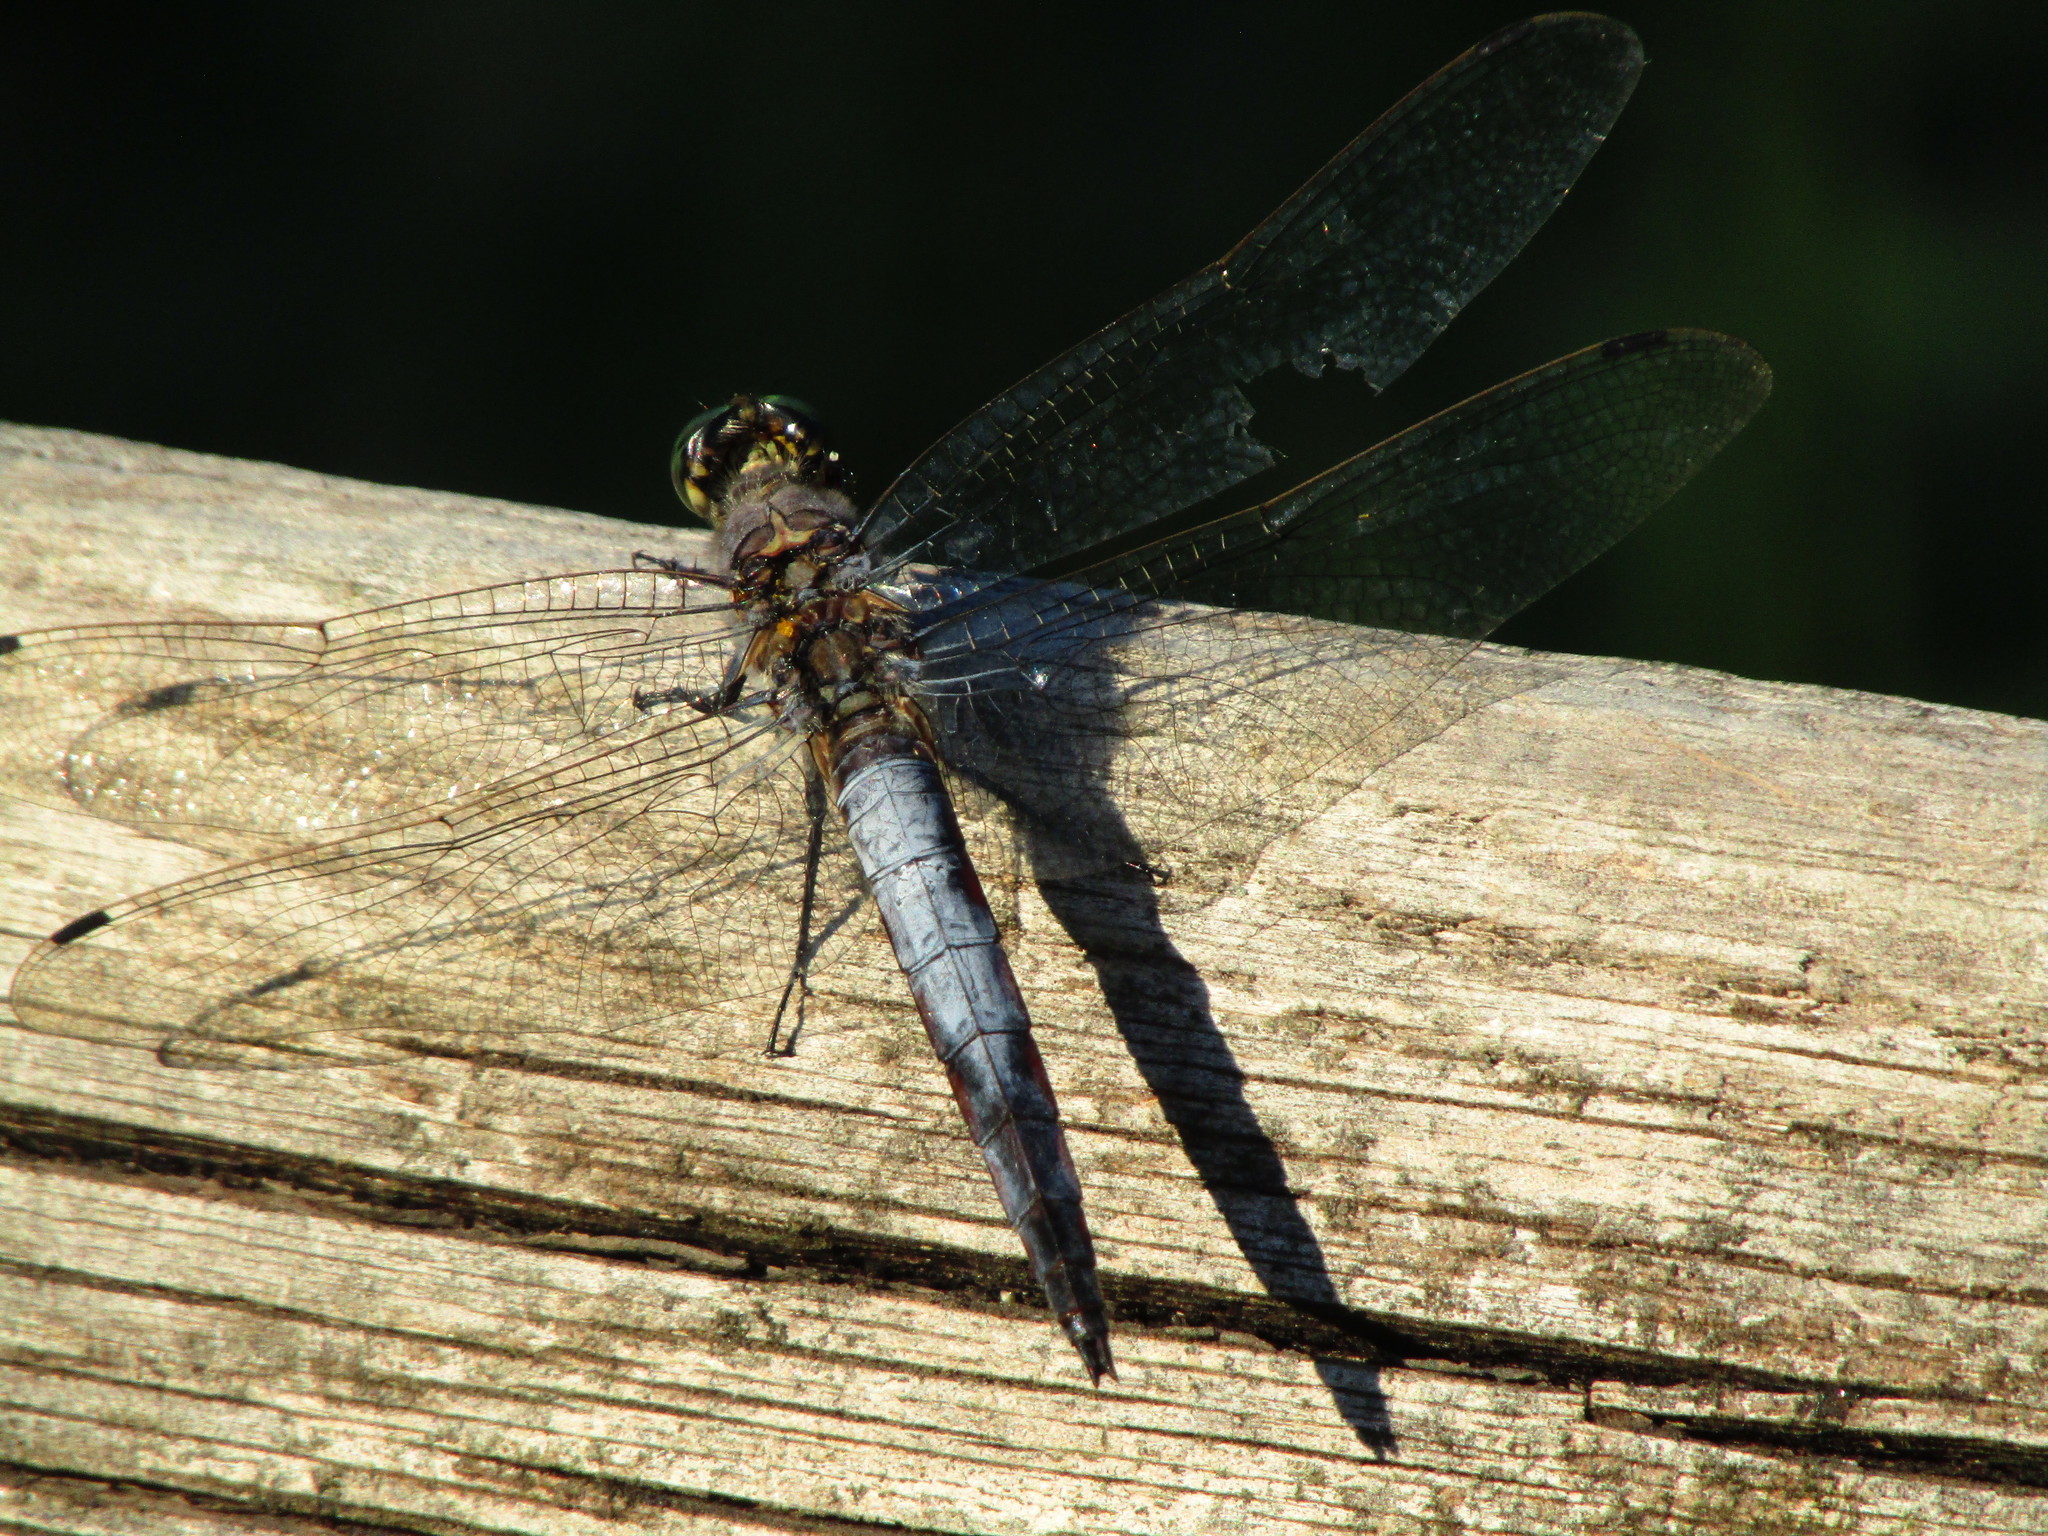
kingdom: Animalia
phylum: Arthropoda
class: Insecta
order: Odonata
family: Libellulidae
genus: Orthetrum
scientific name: Orthetrum cancellatum
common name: Black-tailed skimmer
